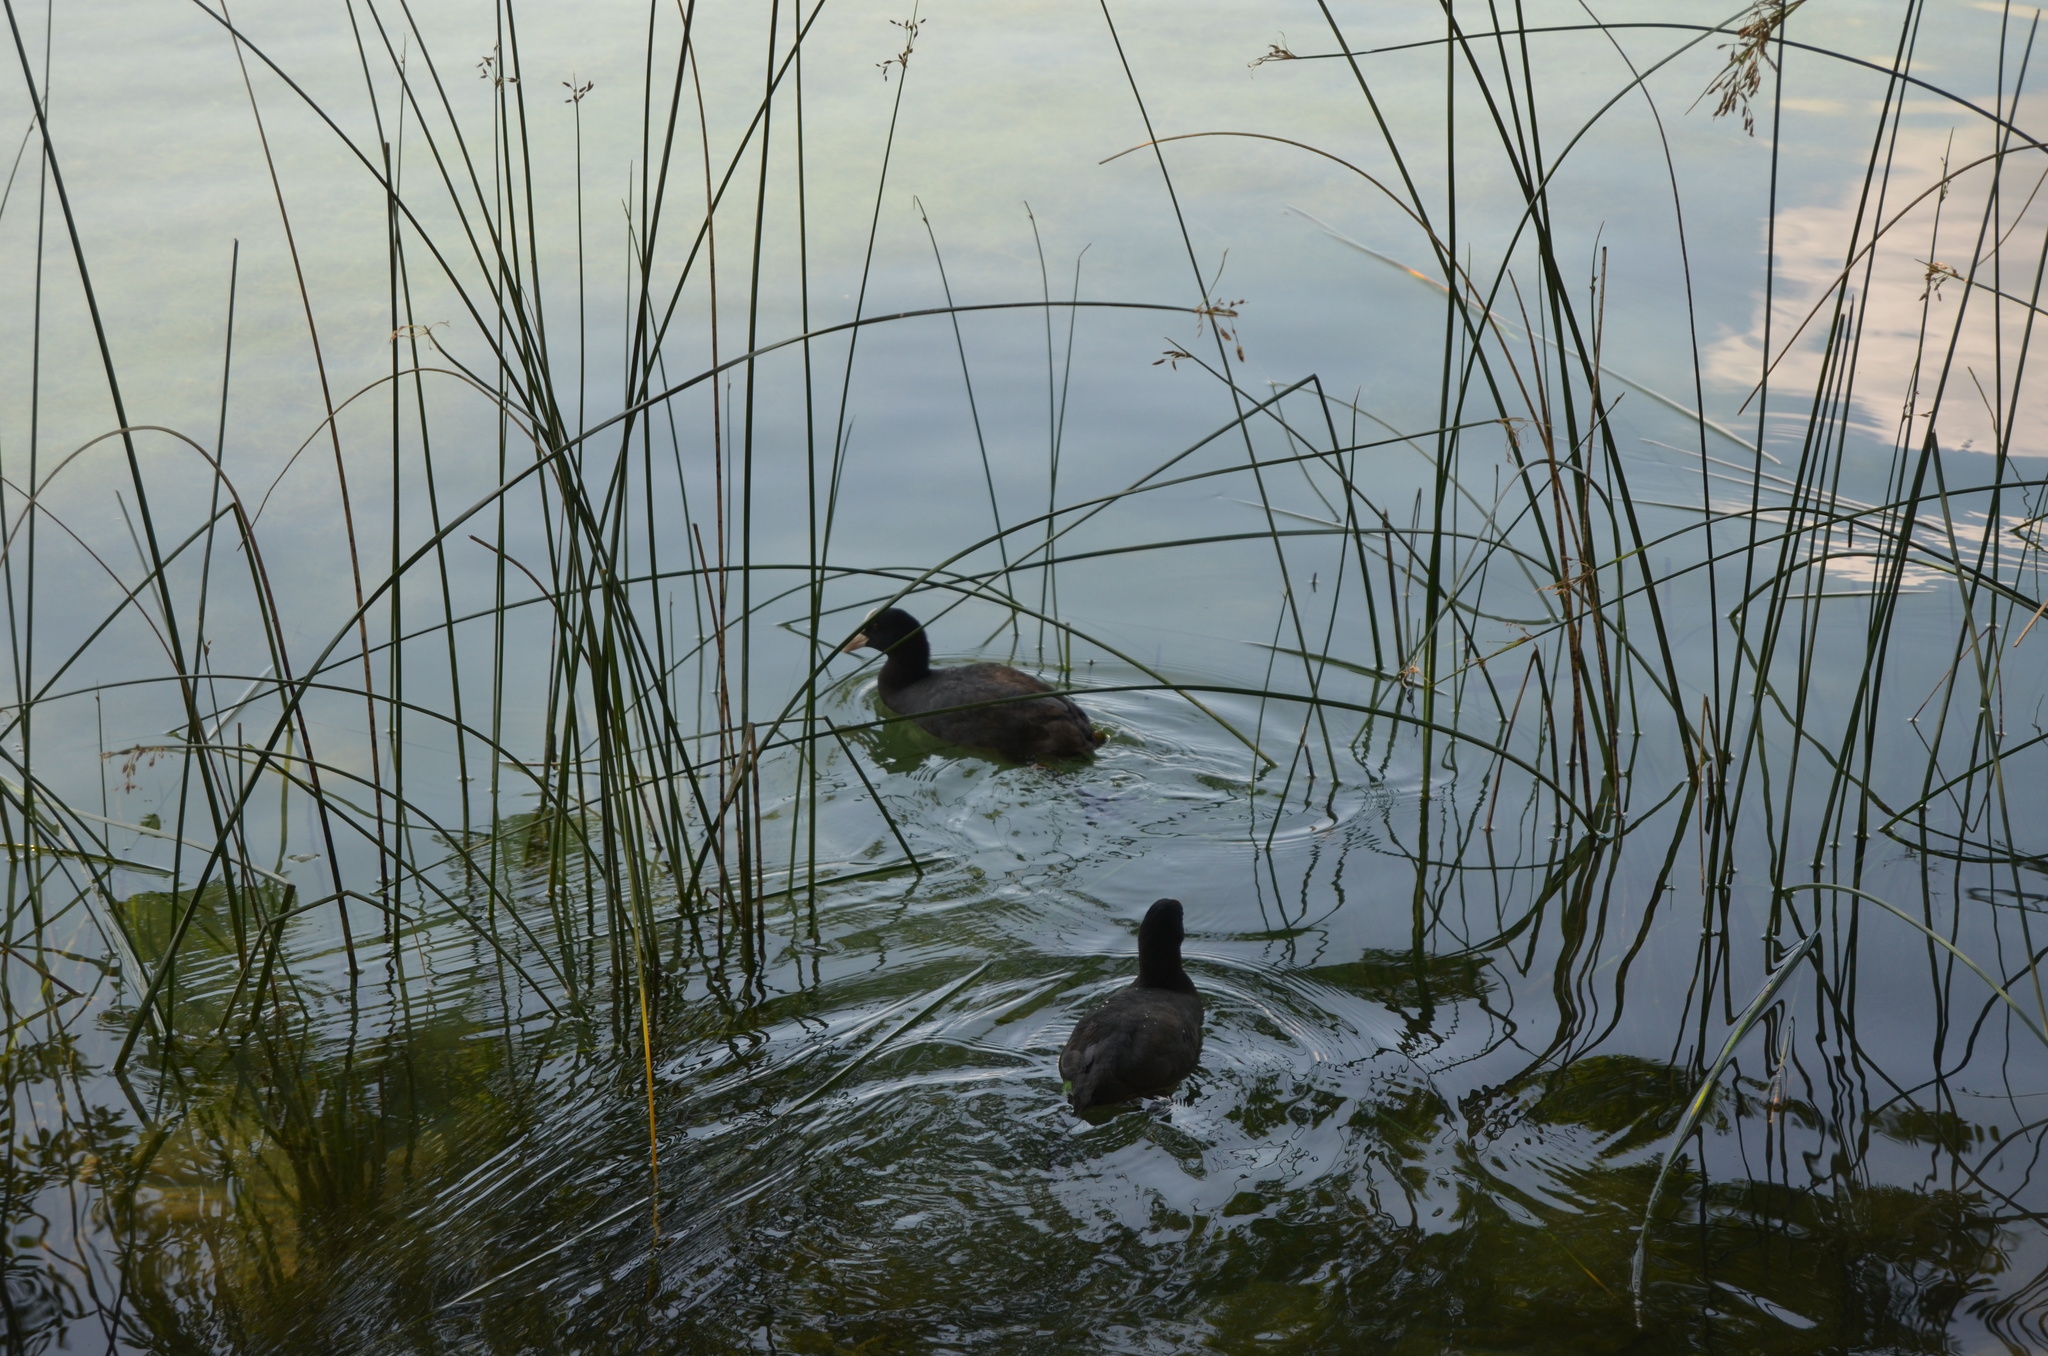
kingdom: Animalia
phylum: Chordata
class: Aves
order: Gruiformes
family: Rallidae
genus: Fulica
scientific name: Fulica atra
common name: Eurasian coot
